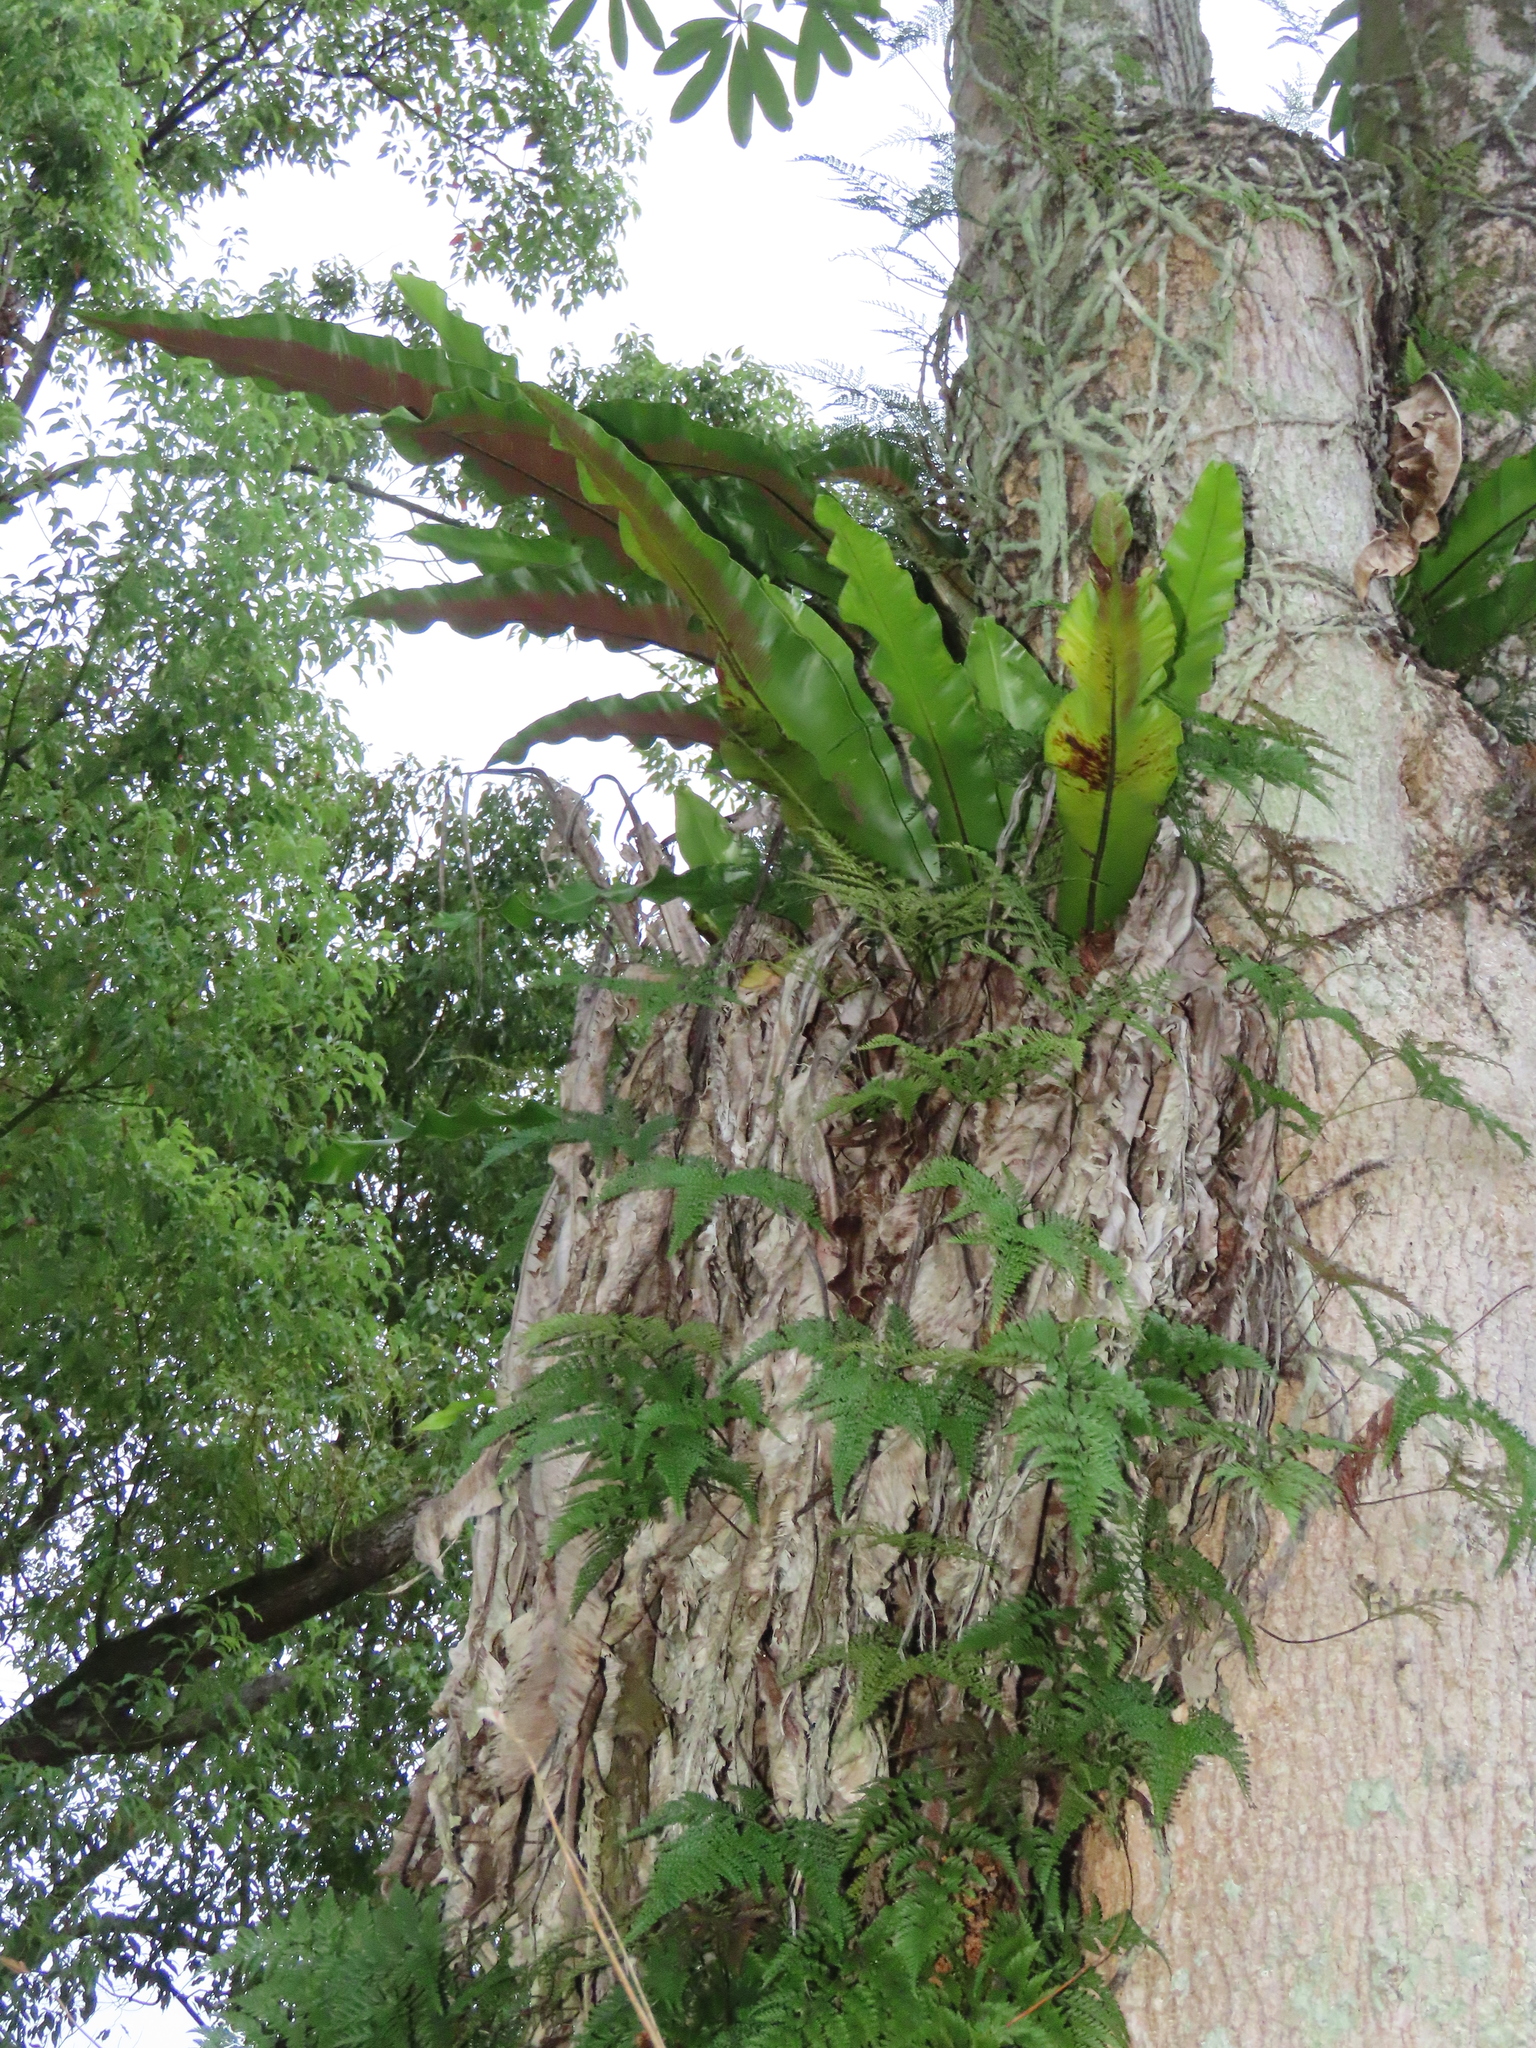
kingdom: Plantae
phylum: Tracheophyta
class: Polypodiopsida
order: Polypodiales
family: Aspleniaceae
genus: Asplenium
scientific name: Asplenium setoi
